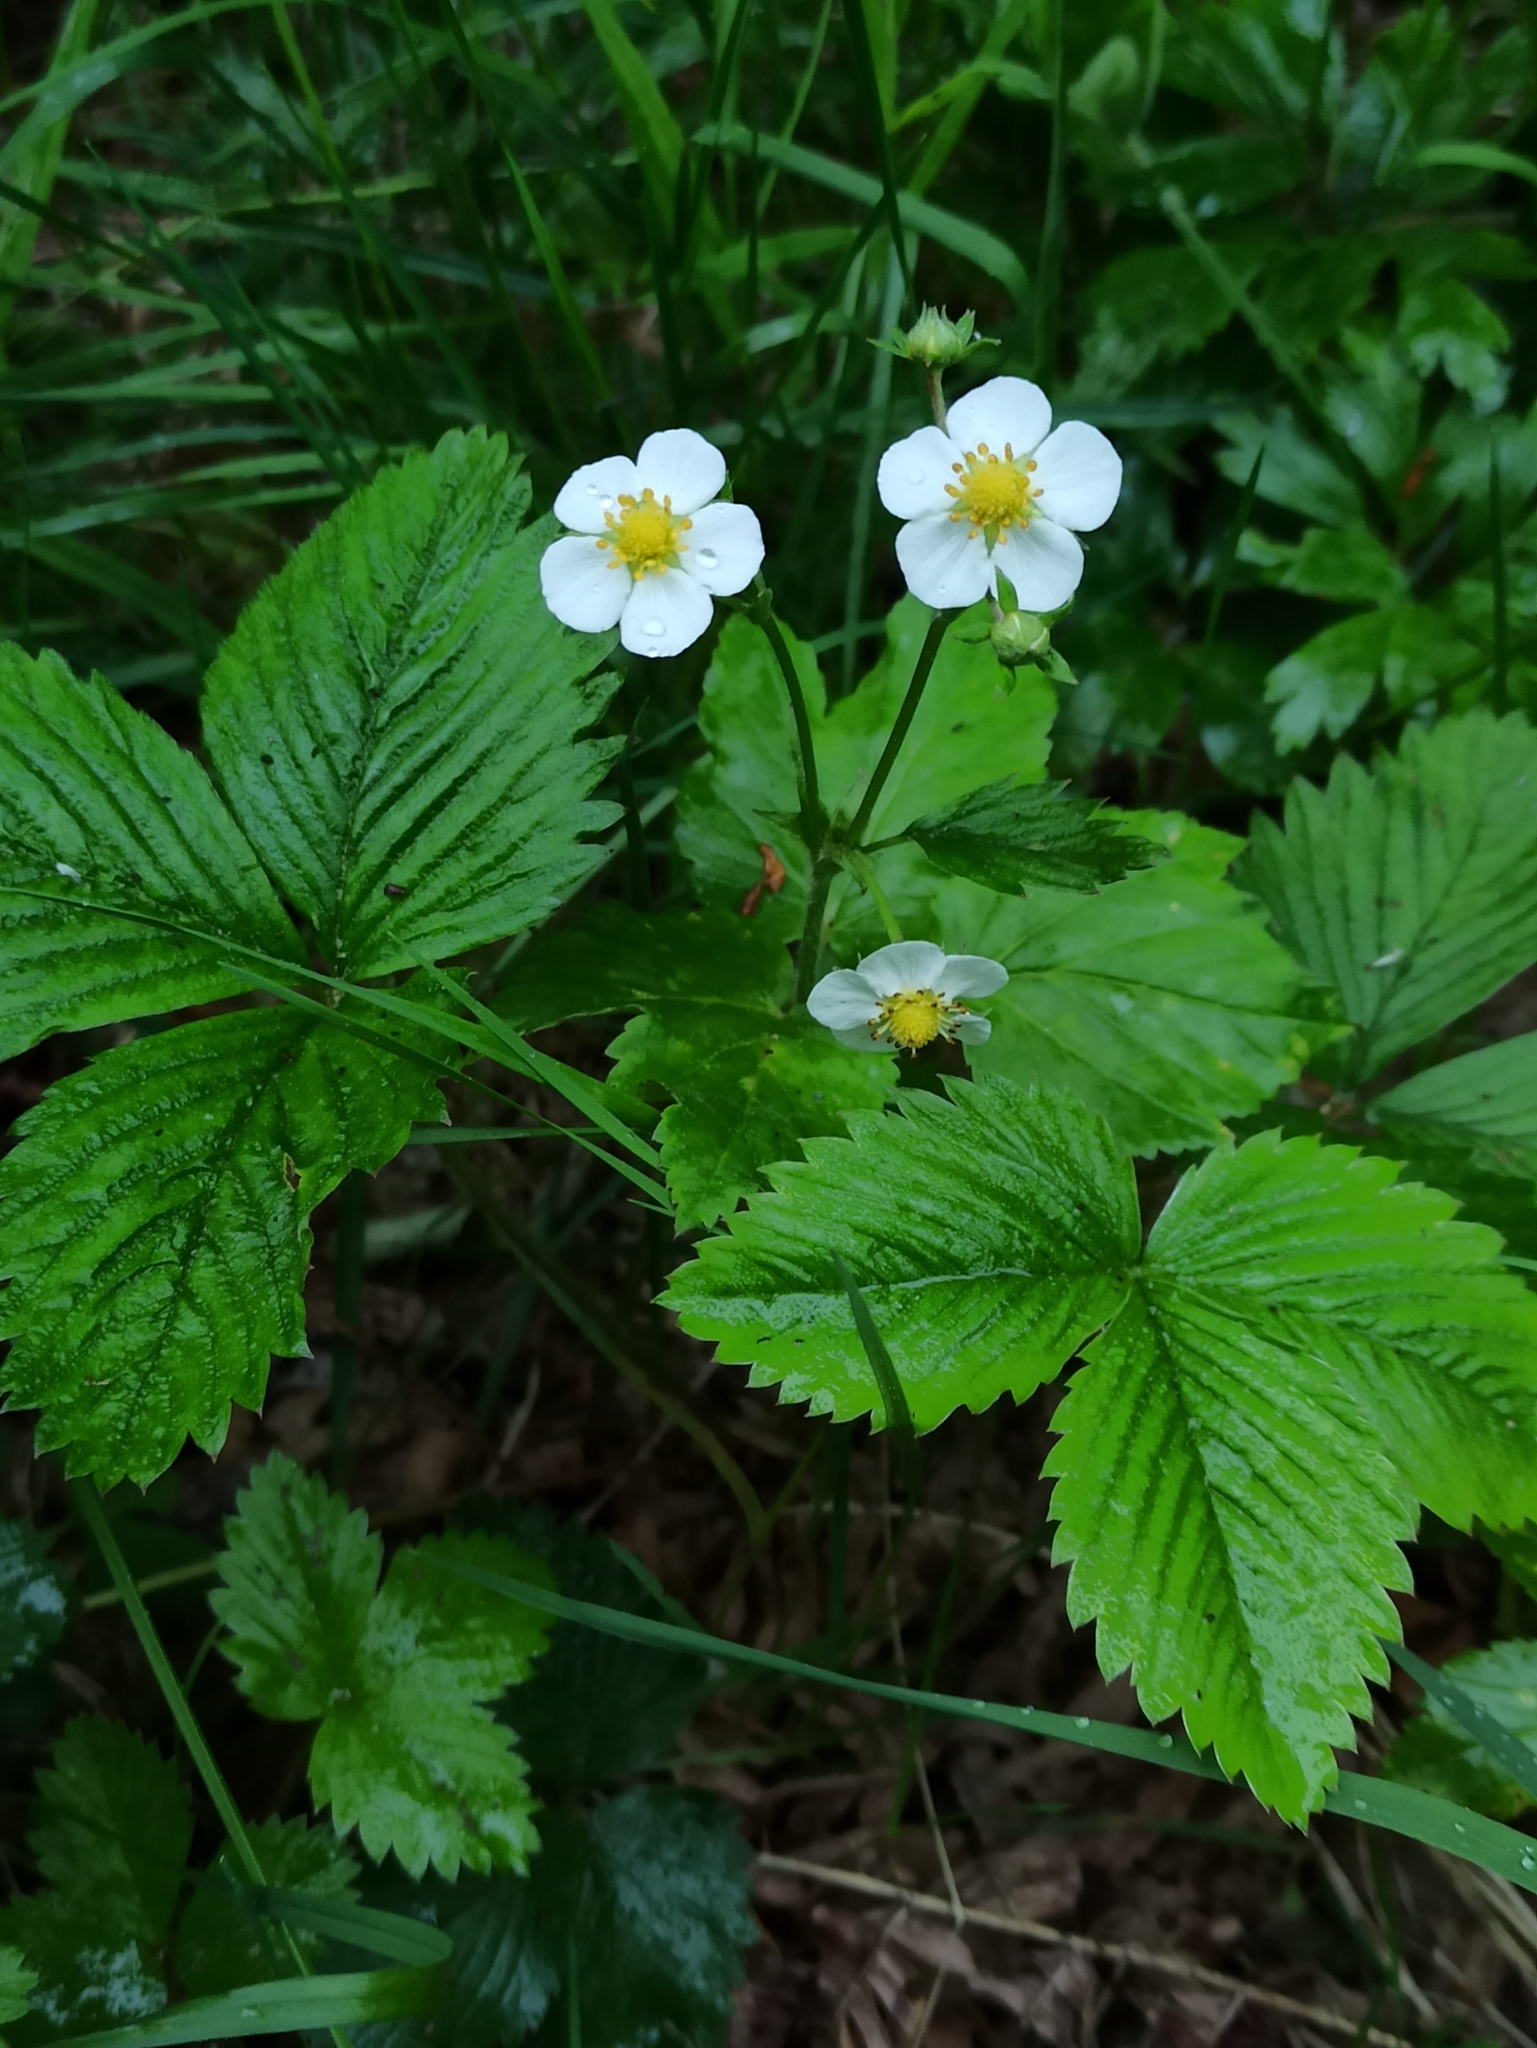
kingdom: Plantae
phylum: Tracheophyta
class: Magnoliopsida
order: Rosales
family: Rosaceae
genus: Fragaria
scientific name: Fragaria vesca
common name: Wild strawberry
